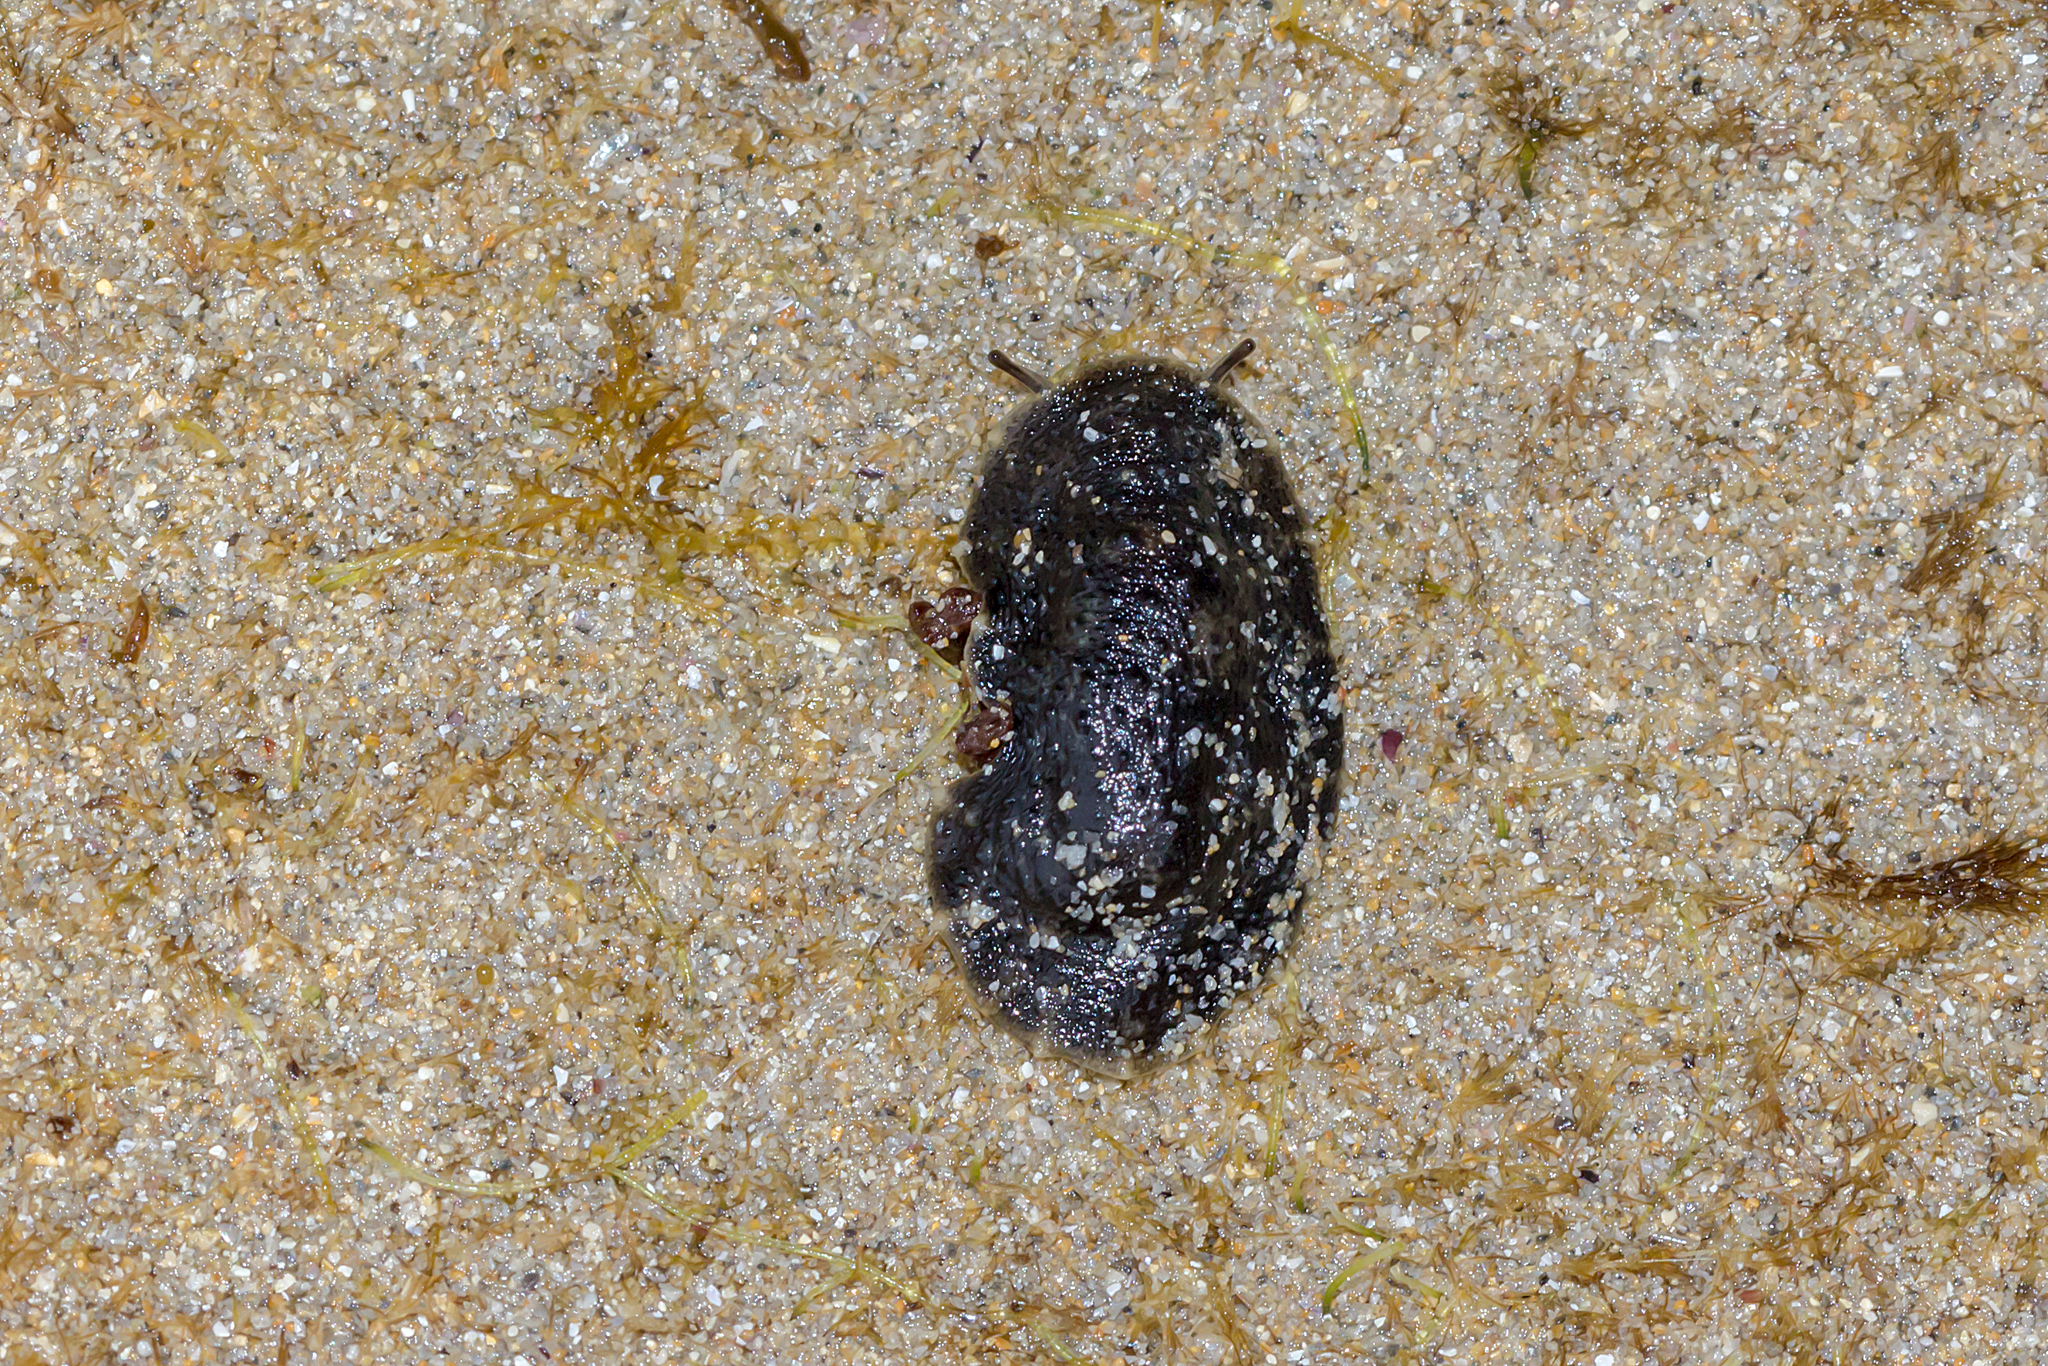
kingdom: Animalia
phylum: Mollusca
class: Gastropoda
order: Systellommatophora
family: Onchidiidae
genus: Onchidella
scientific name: Onchidella nigricans
